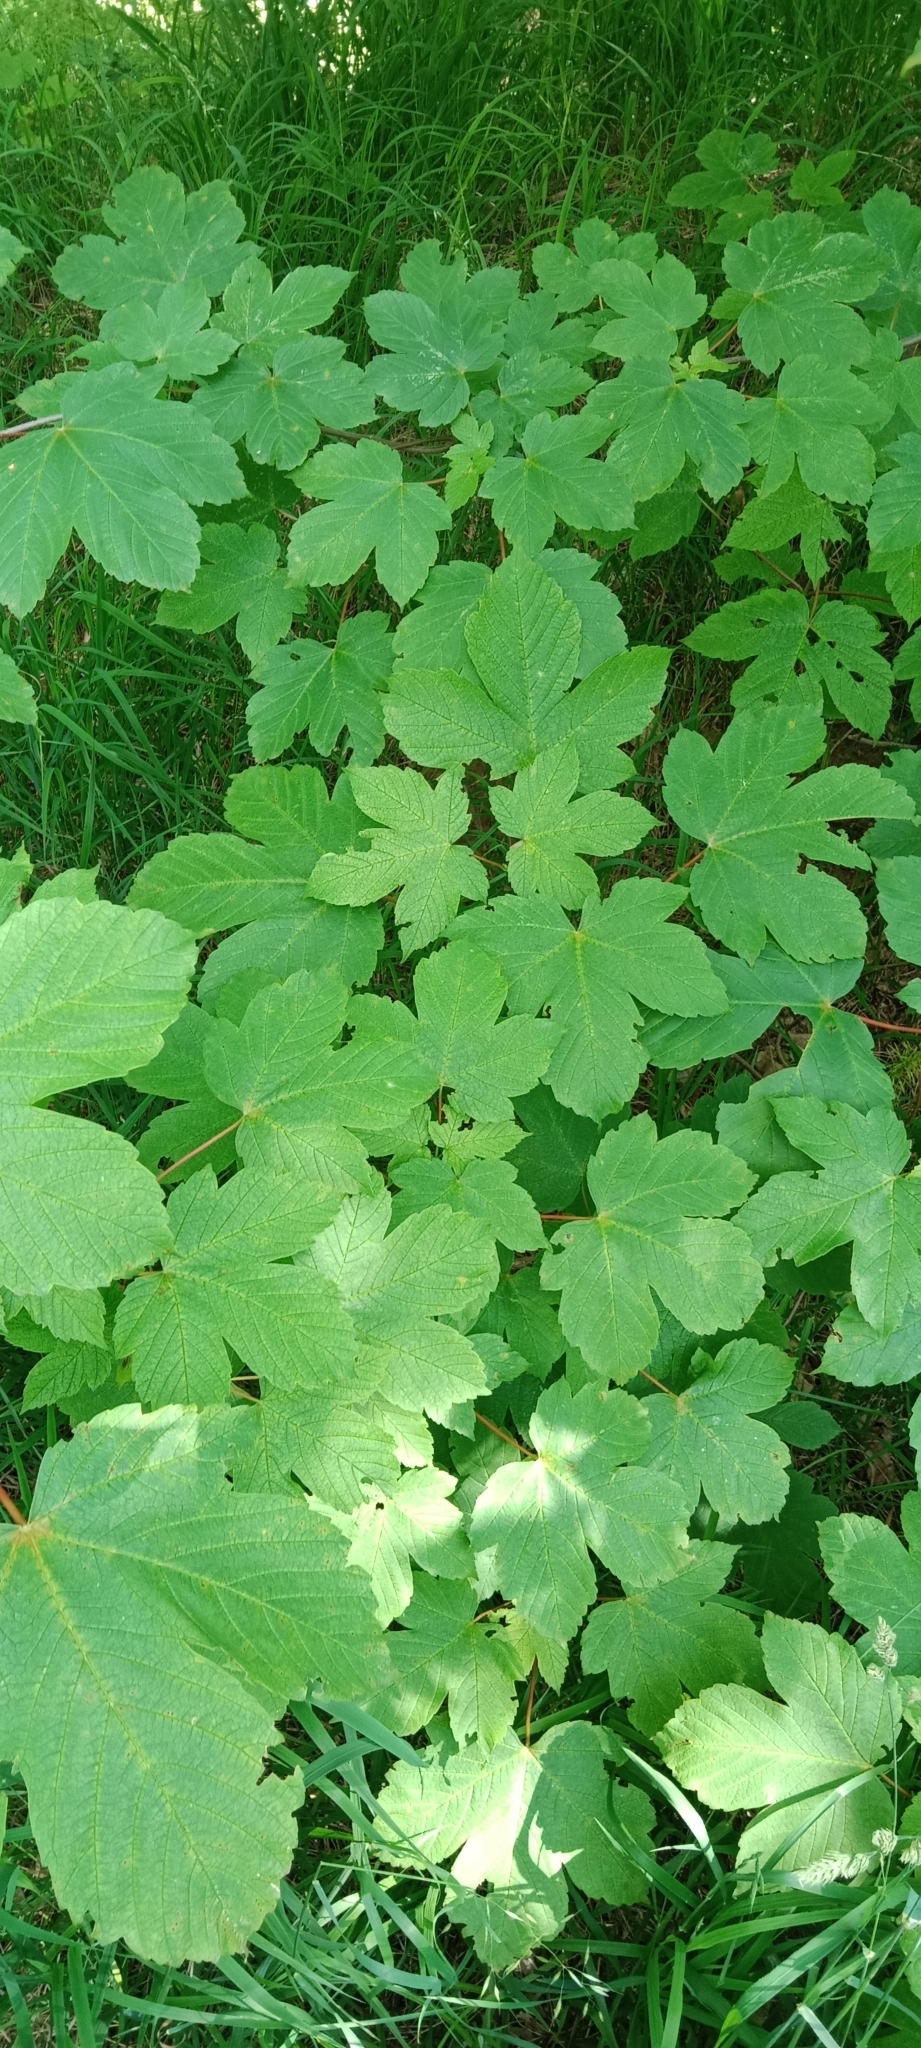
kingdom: Plantae
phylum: Tracheophyta
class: Magnoliopsida
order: Sapindales
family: Sapindaceae
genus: Acer
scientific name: Acer pseudoplatanus
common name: Sycamore
